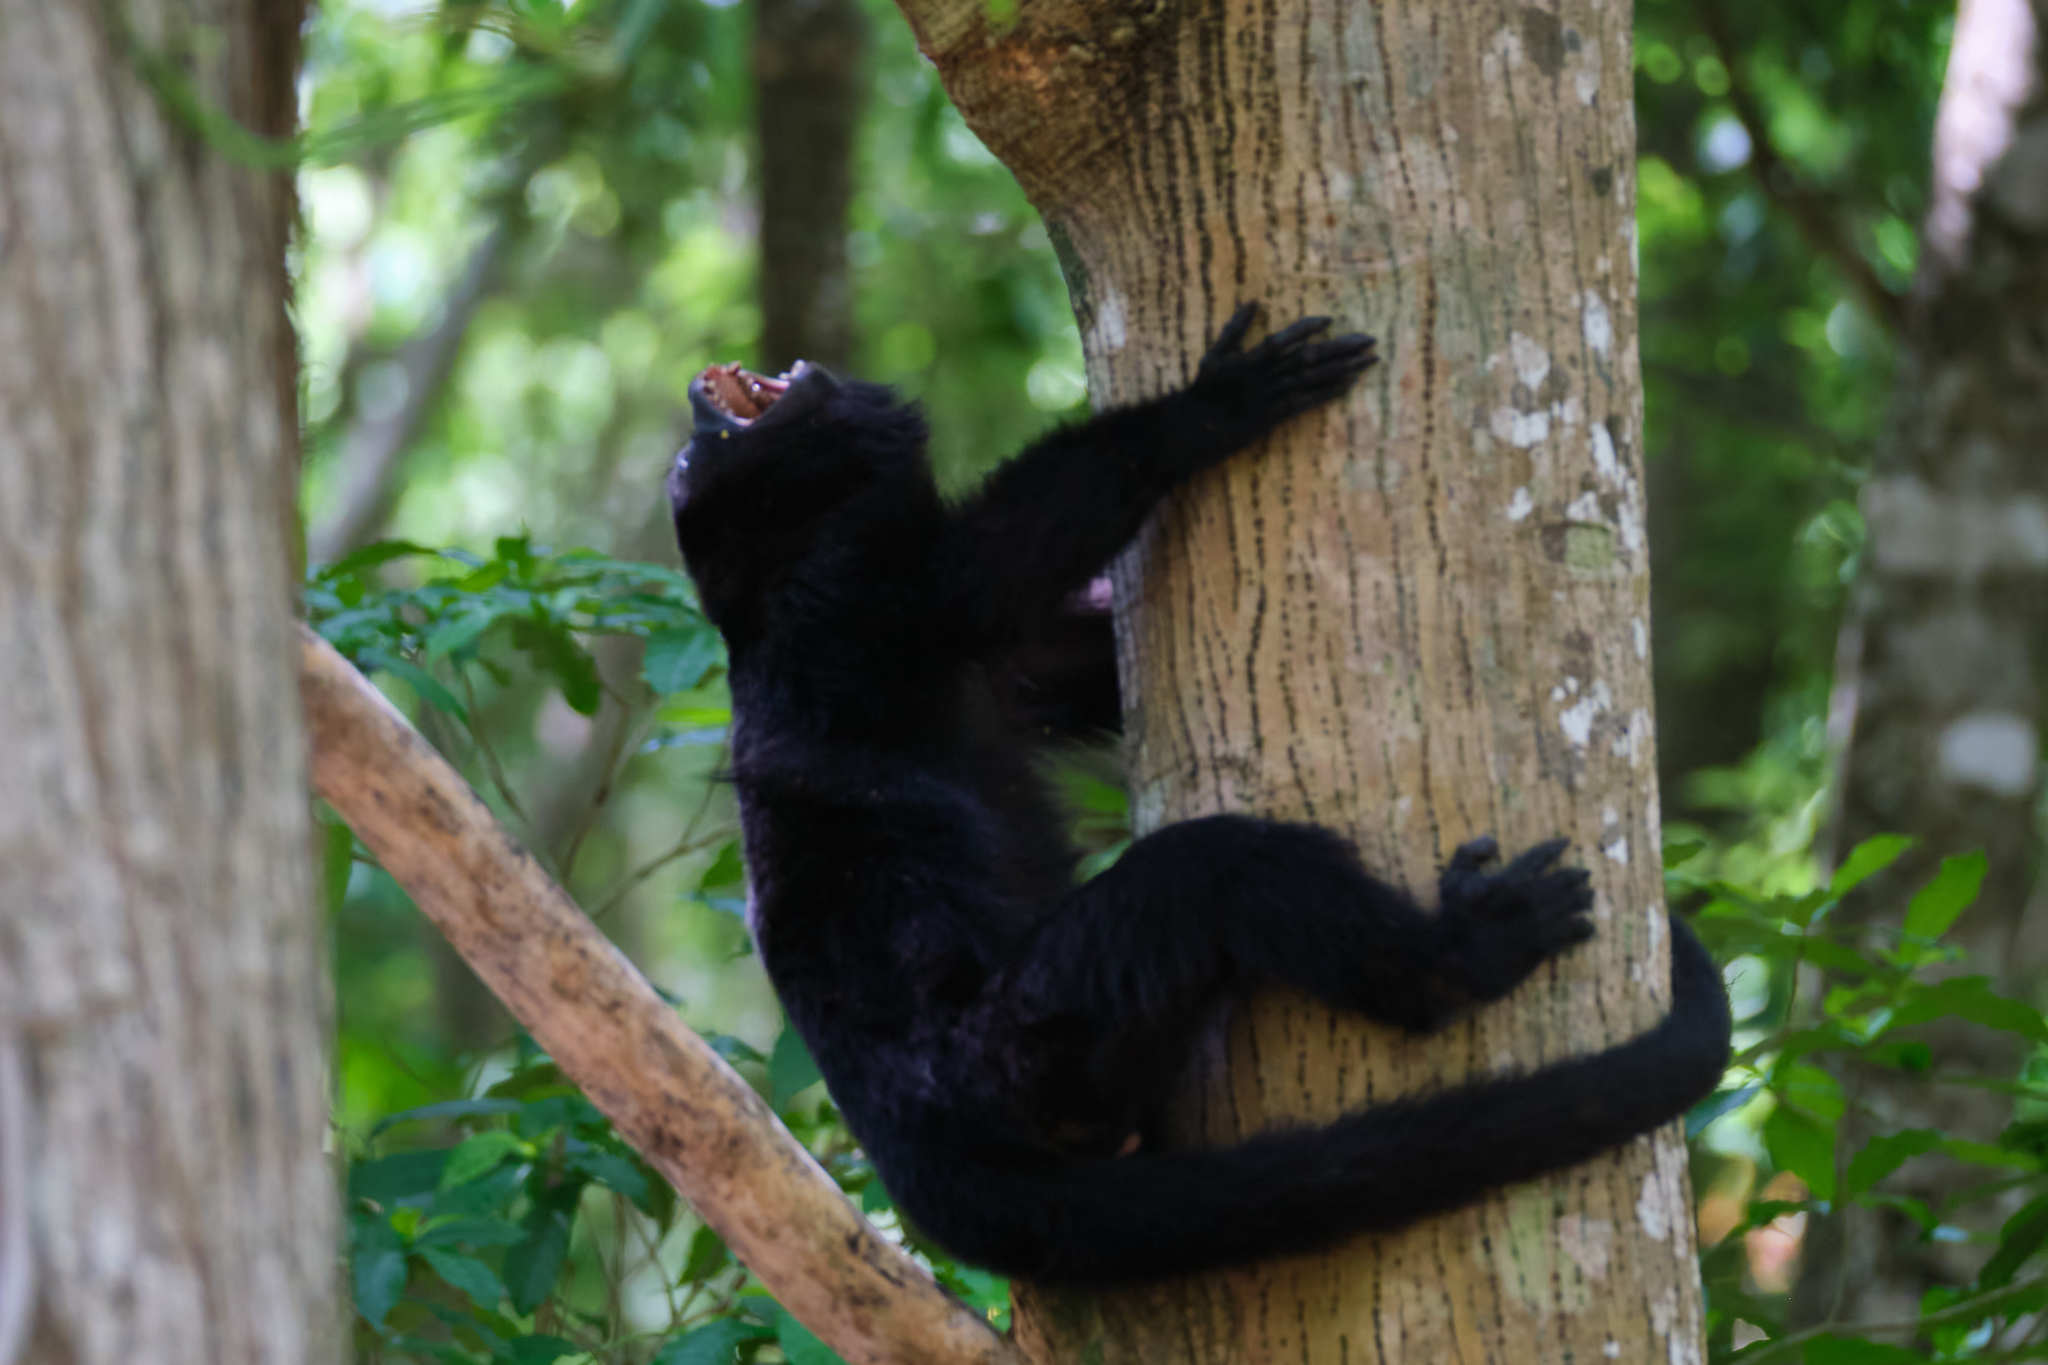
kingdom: Animalia
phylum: Chordata
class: Mammalia
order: Primates
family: Atelidae
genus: Alouatta
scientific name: Alouatta pigra
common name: Guatemalan black howler
